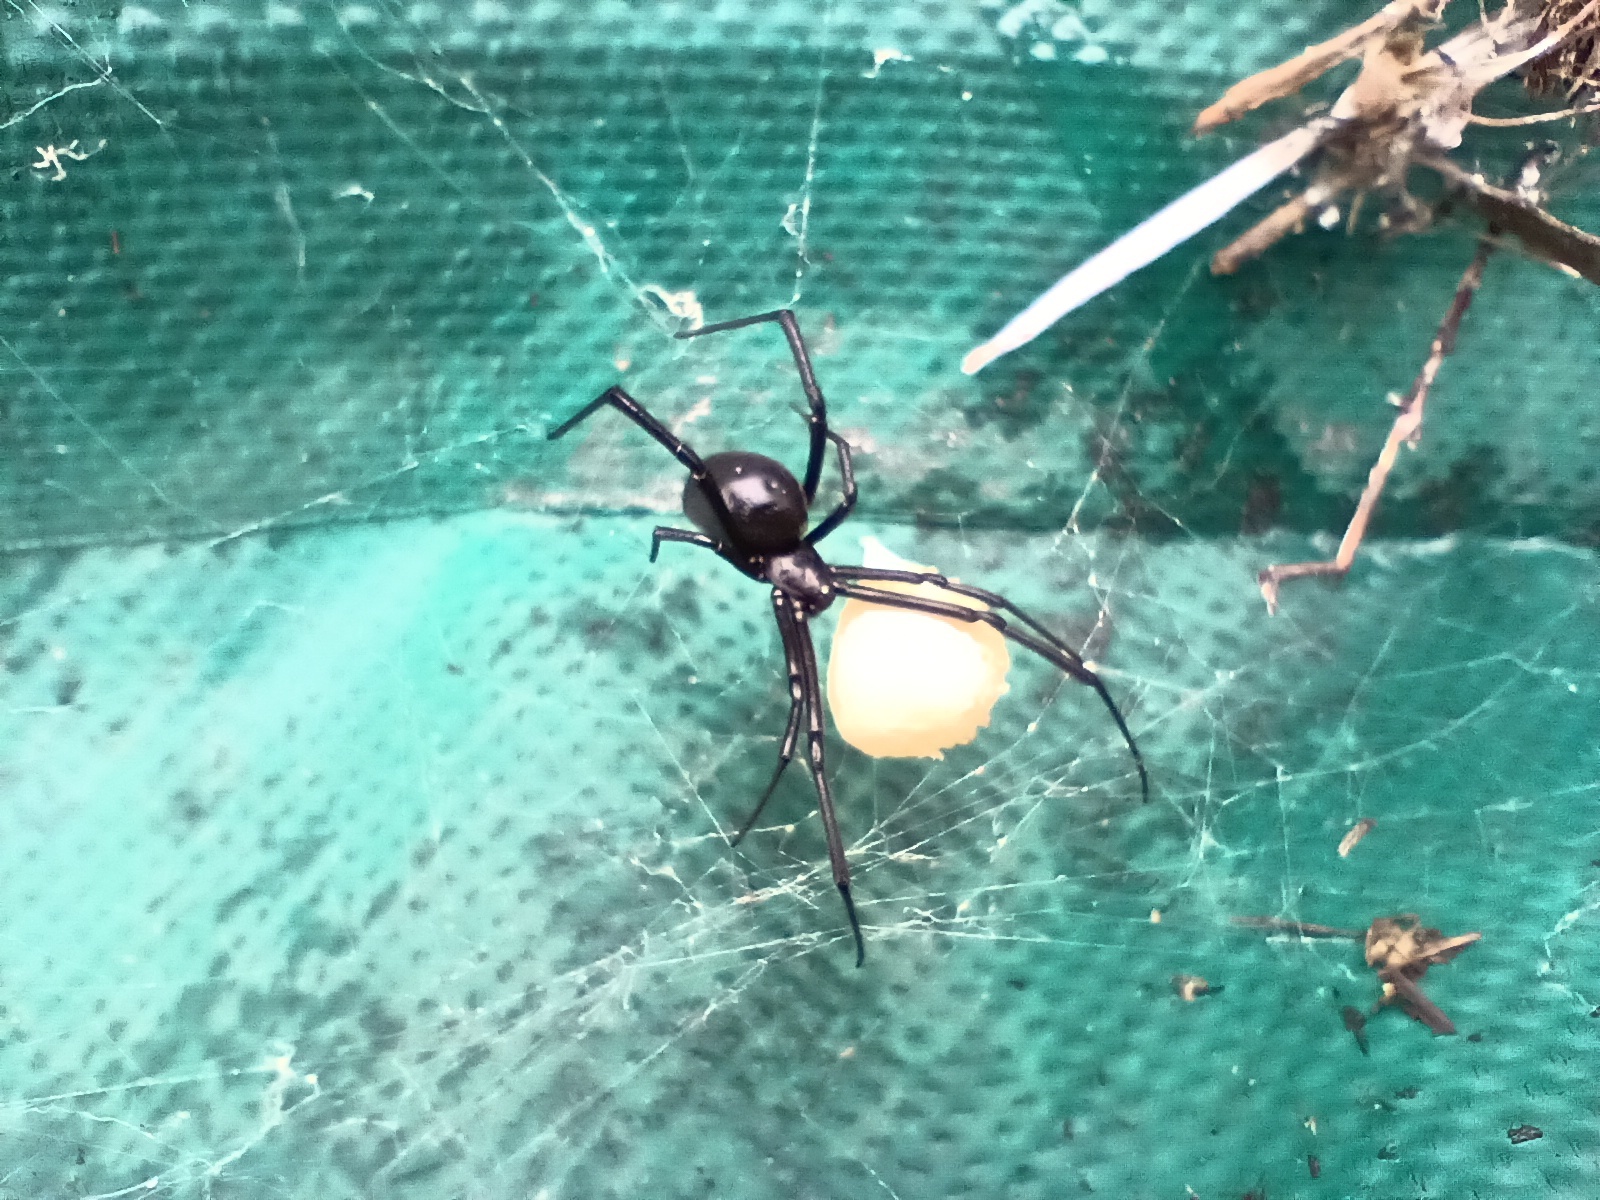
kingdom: Animalia
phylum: Arthropoda
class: Arachnida
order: Araneae
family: Theridiidae
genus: Latrodectus
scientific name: Latrodectus mactans
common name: Cobweb spiders
